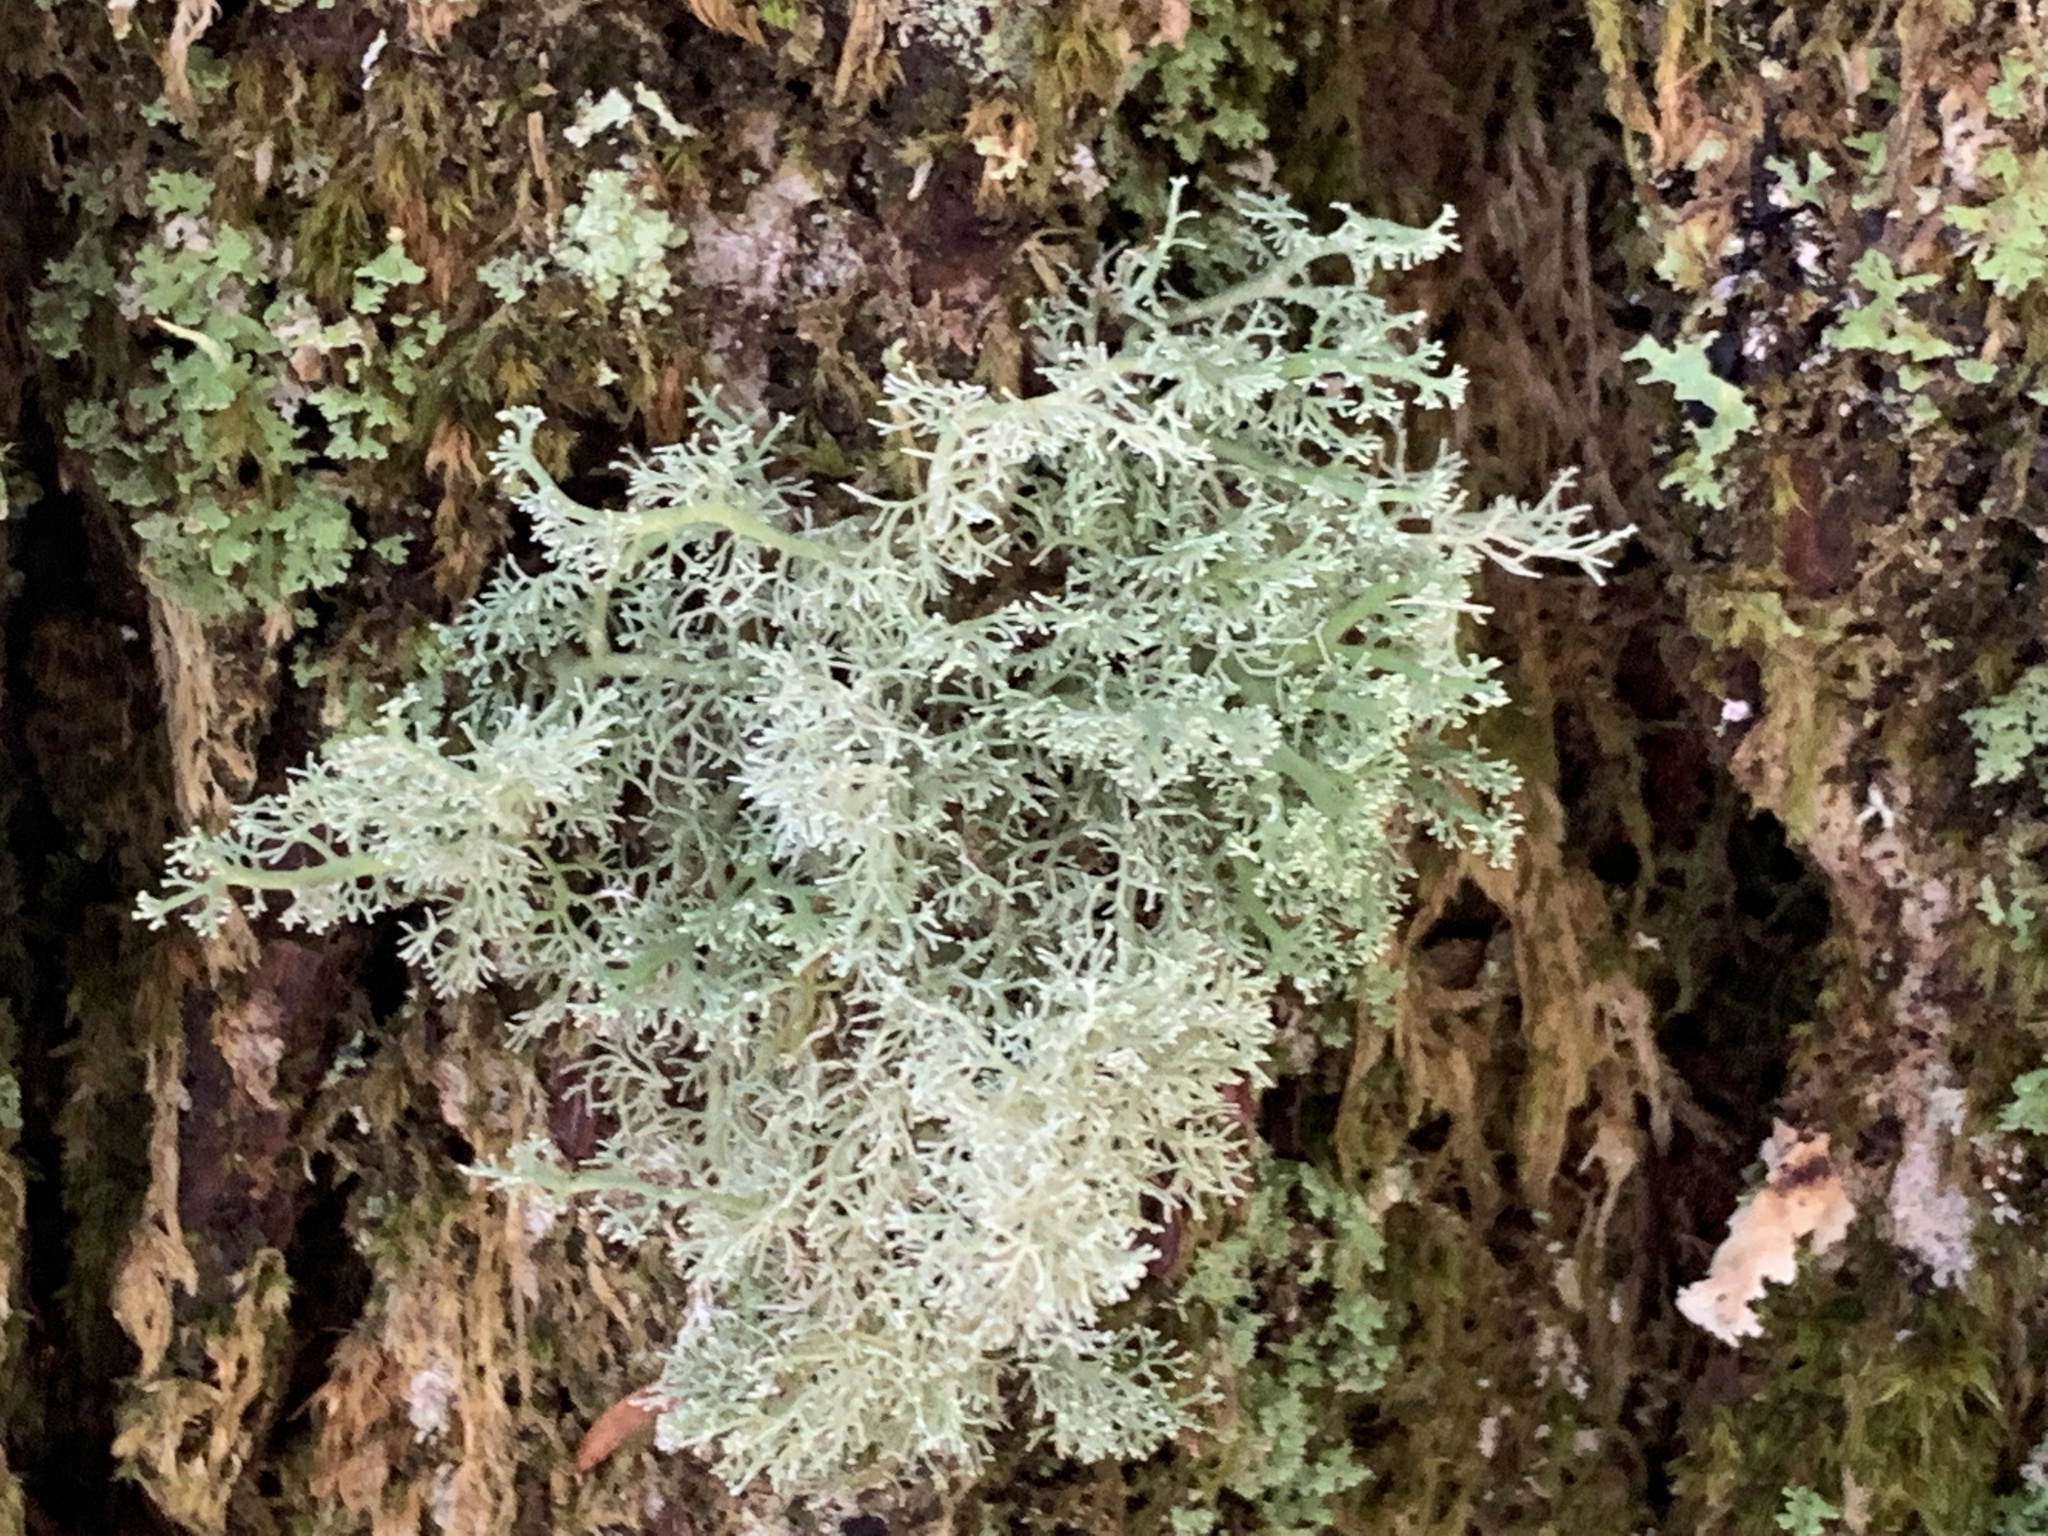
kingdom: Fungi
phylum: Ascomycota
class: Lecanoromycetes
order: Lecanorales
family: Ramalinaceae
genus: Ramalina
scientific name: Ramalina roesleri
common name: Frayed ribbon lichen
